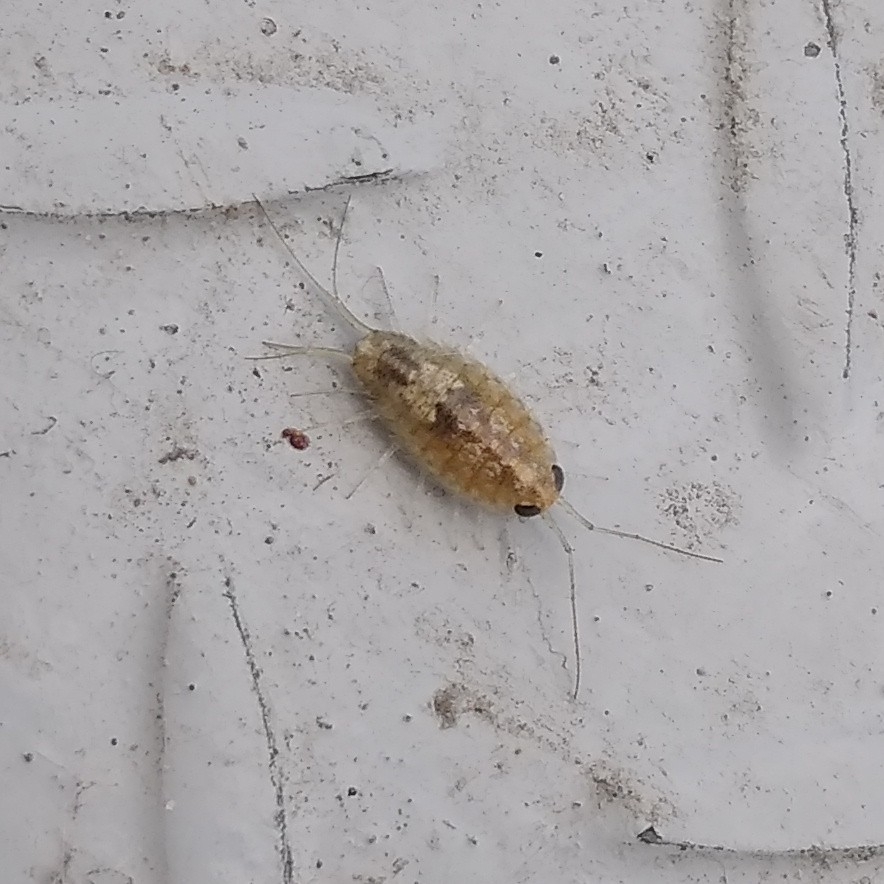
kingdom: Animalia
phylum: Arthropoda
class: Malacostraca
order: Isopoda
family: Ligiidae
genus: Ligia
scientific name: Ligia italica
